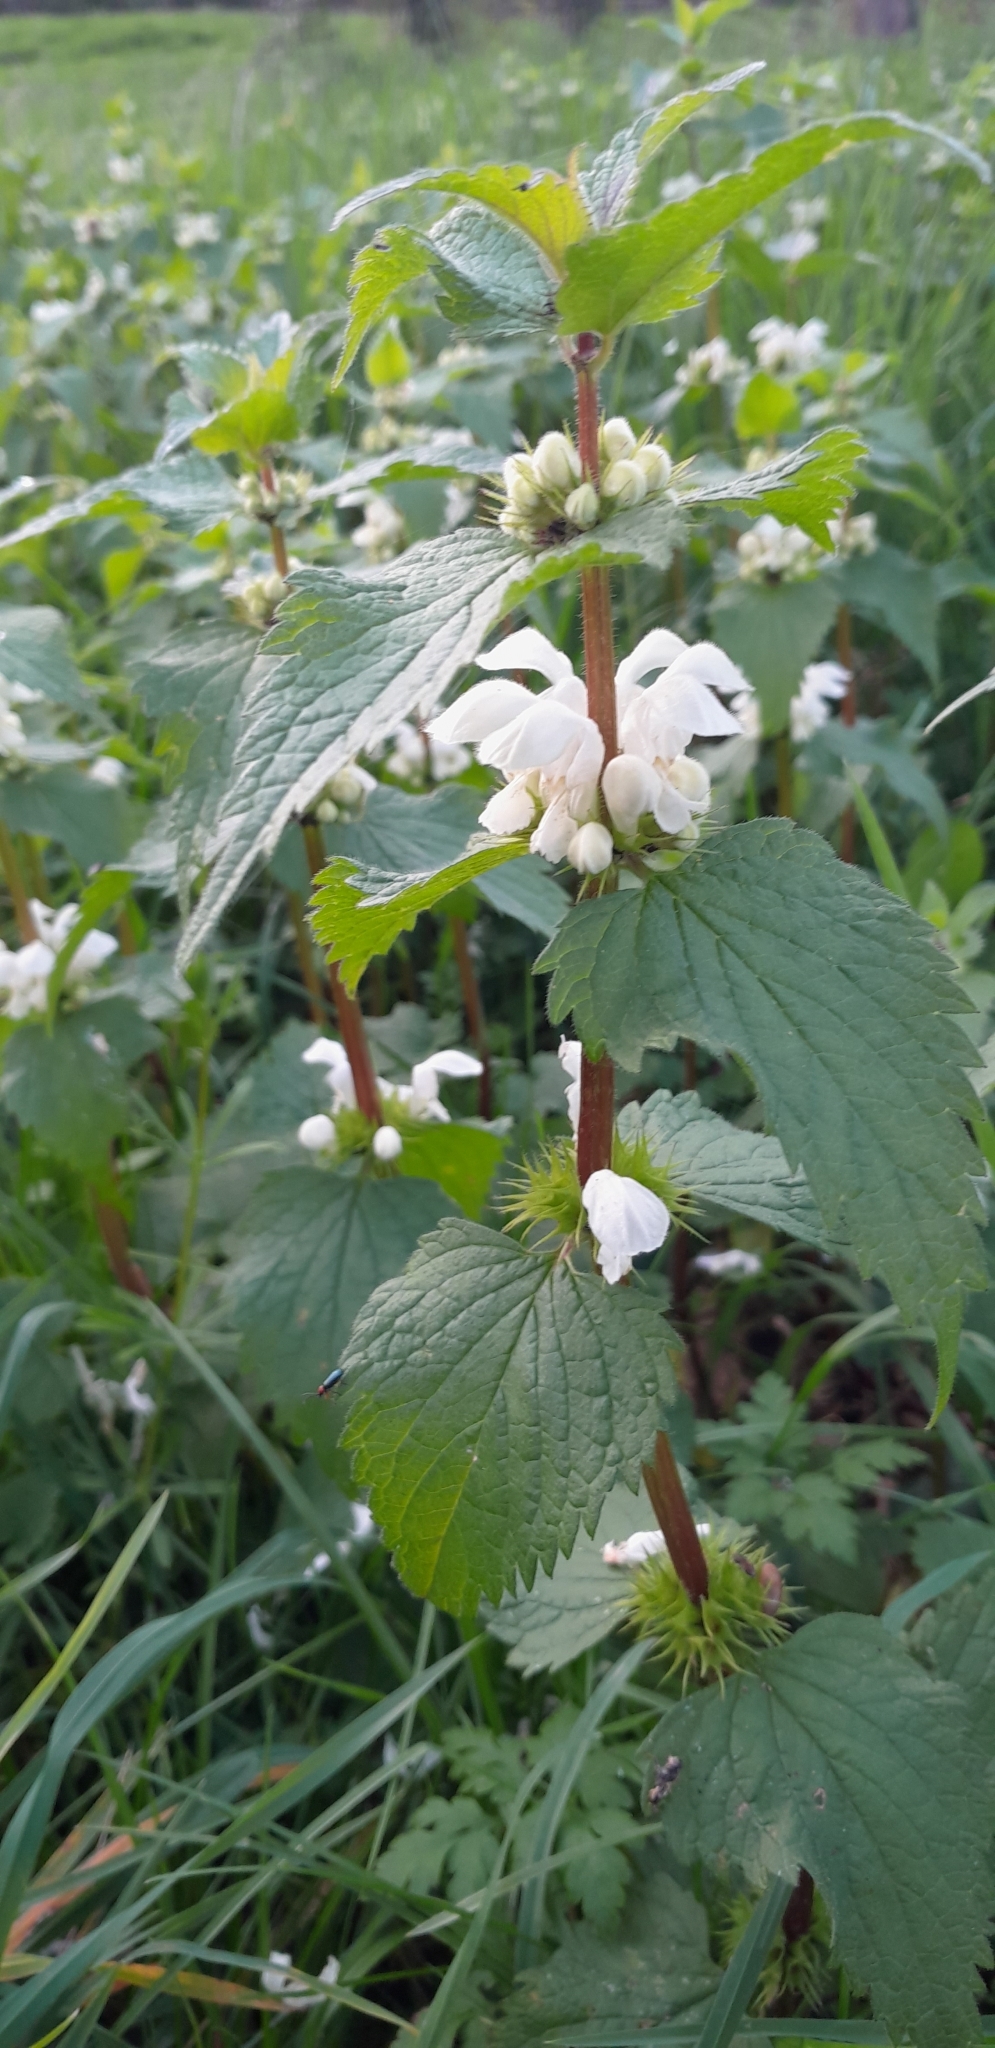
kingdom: Plantae
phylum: Tracheophyta
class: Magnoliopsida
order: Lamiales
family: Lamiaceae
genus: Lamium
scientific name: Lamium album
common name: White dead-nettle
